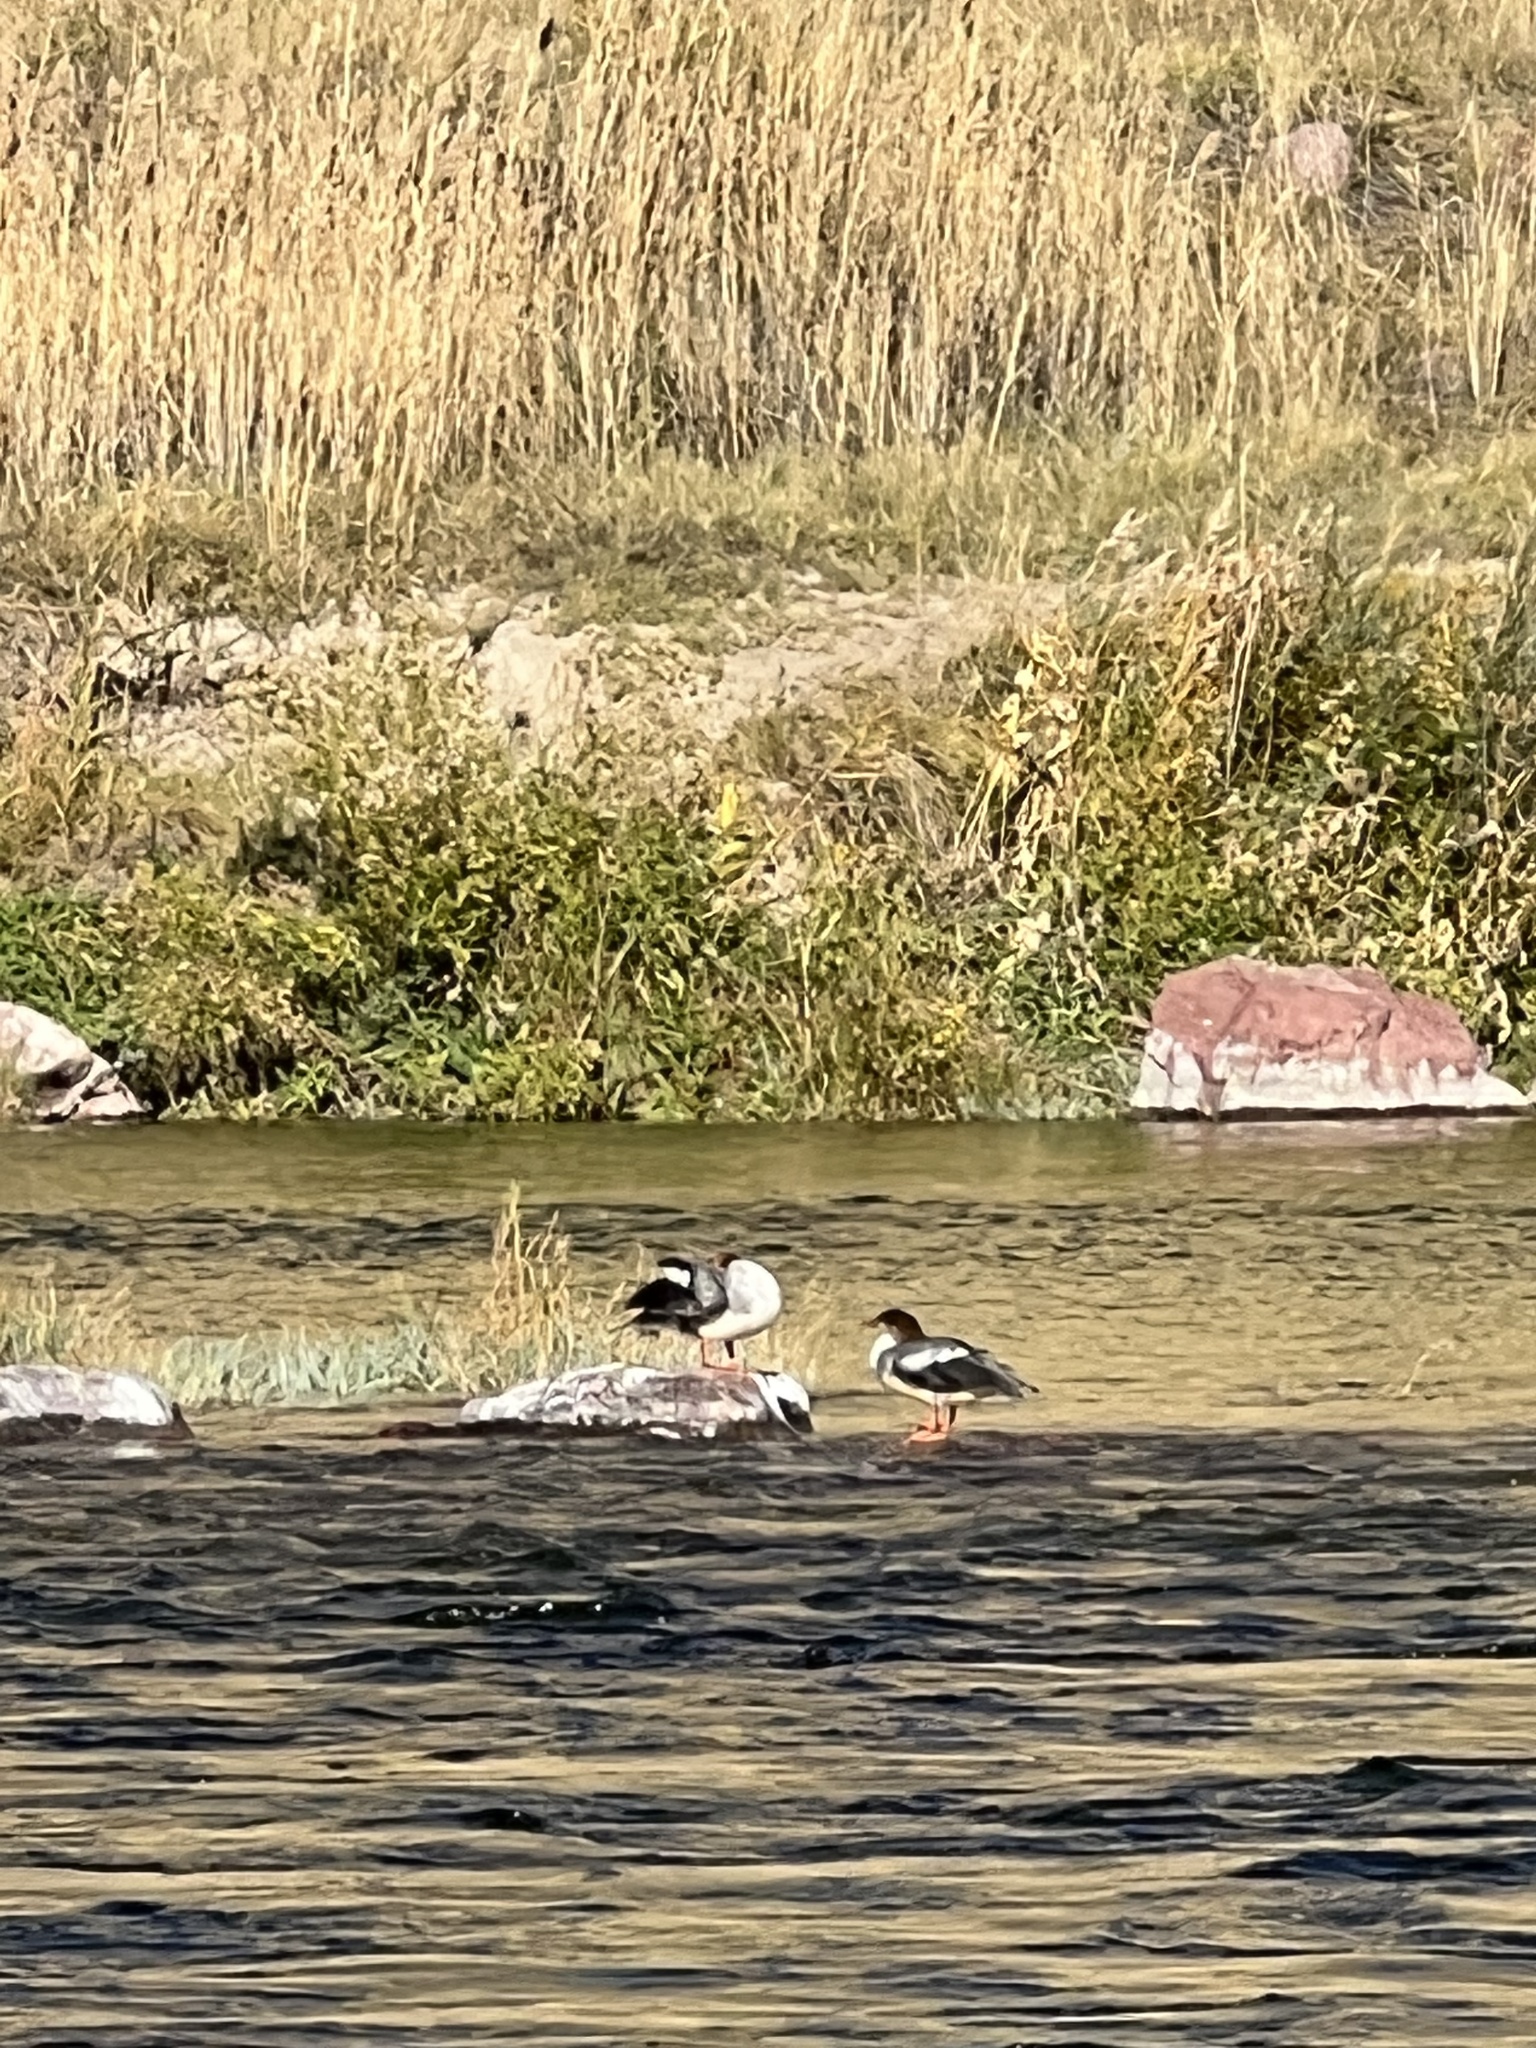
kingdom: Animalia
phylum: Chordata
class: Aves
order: Anseriformes
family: Anatidae
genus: Mergus
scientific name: Mergus merganser
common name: Common merganser
